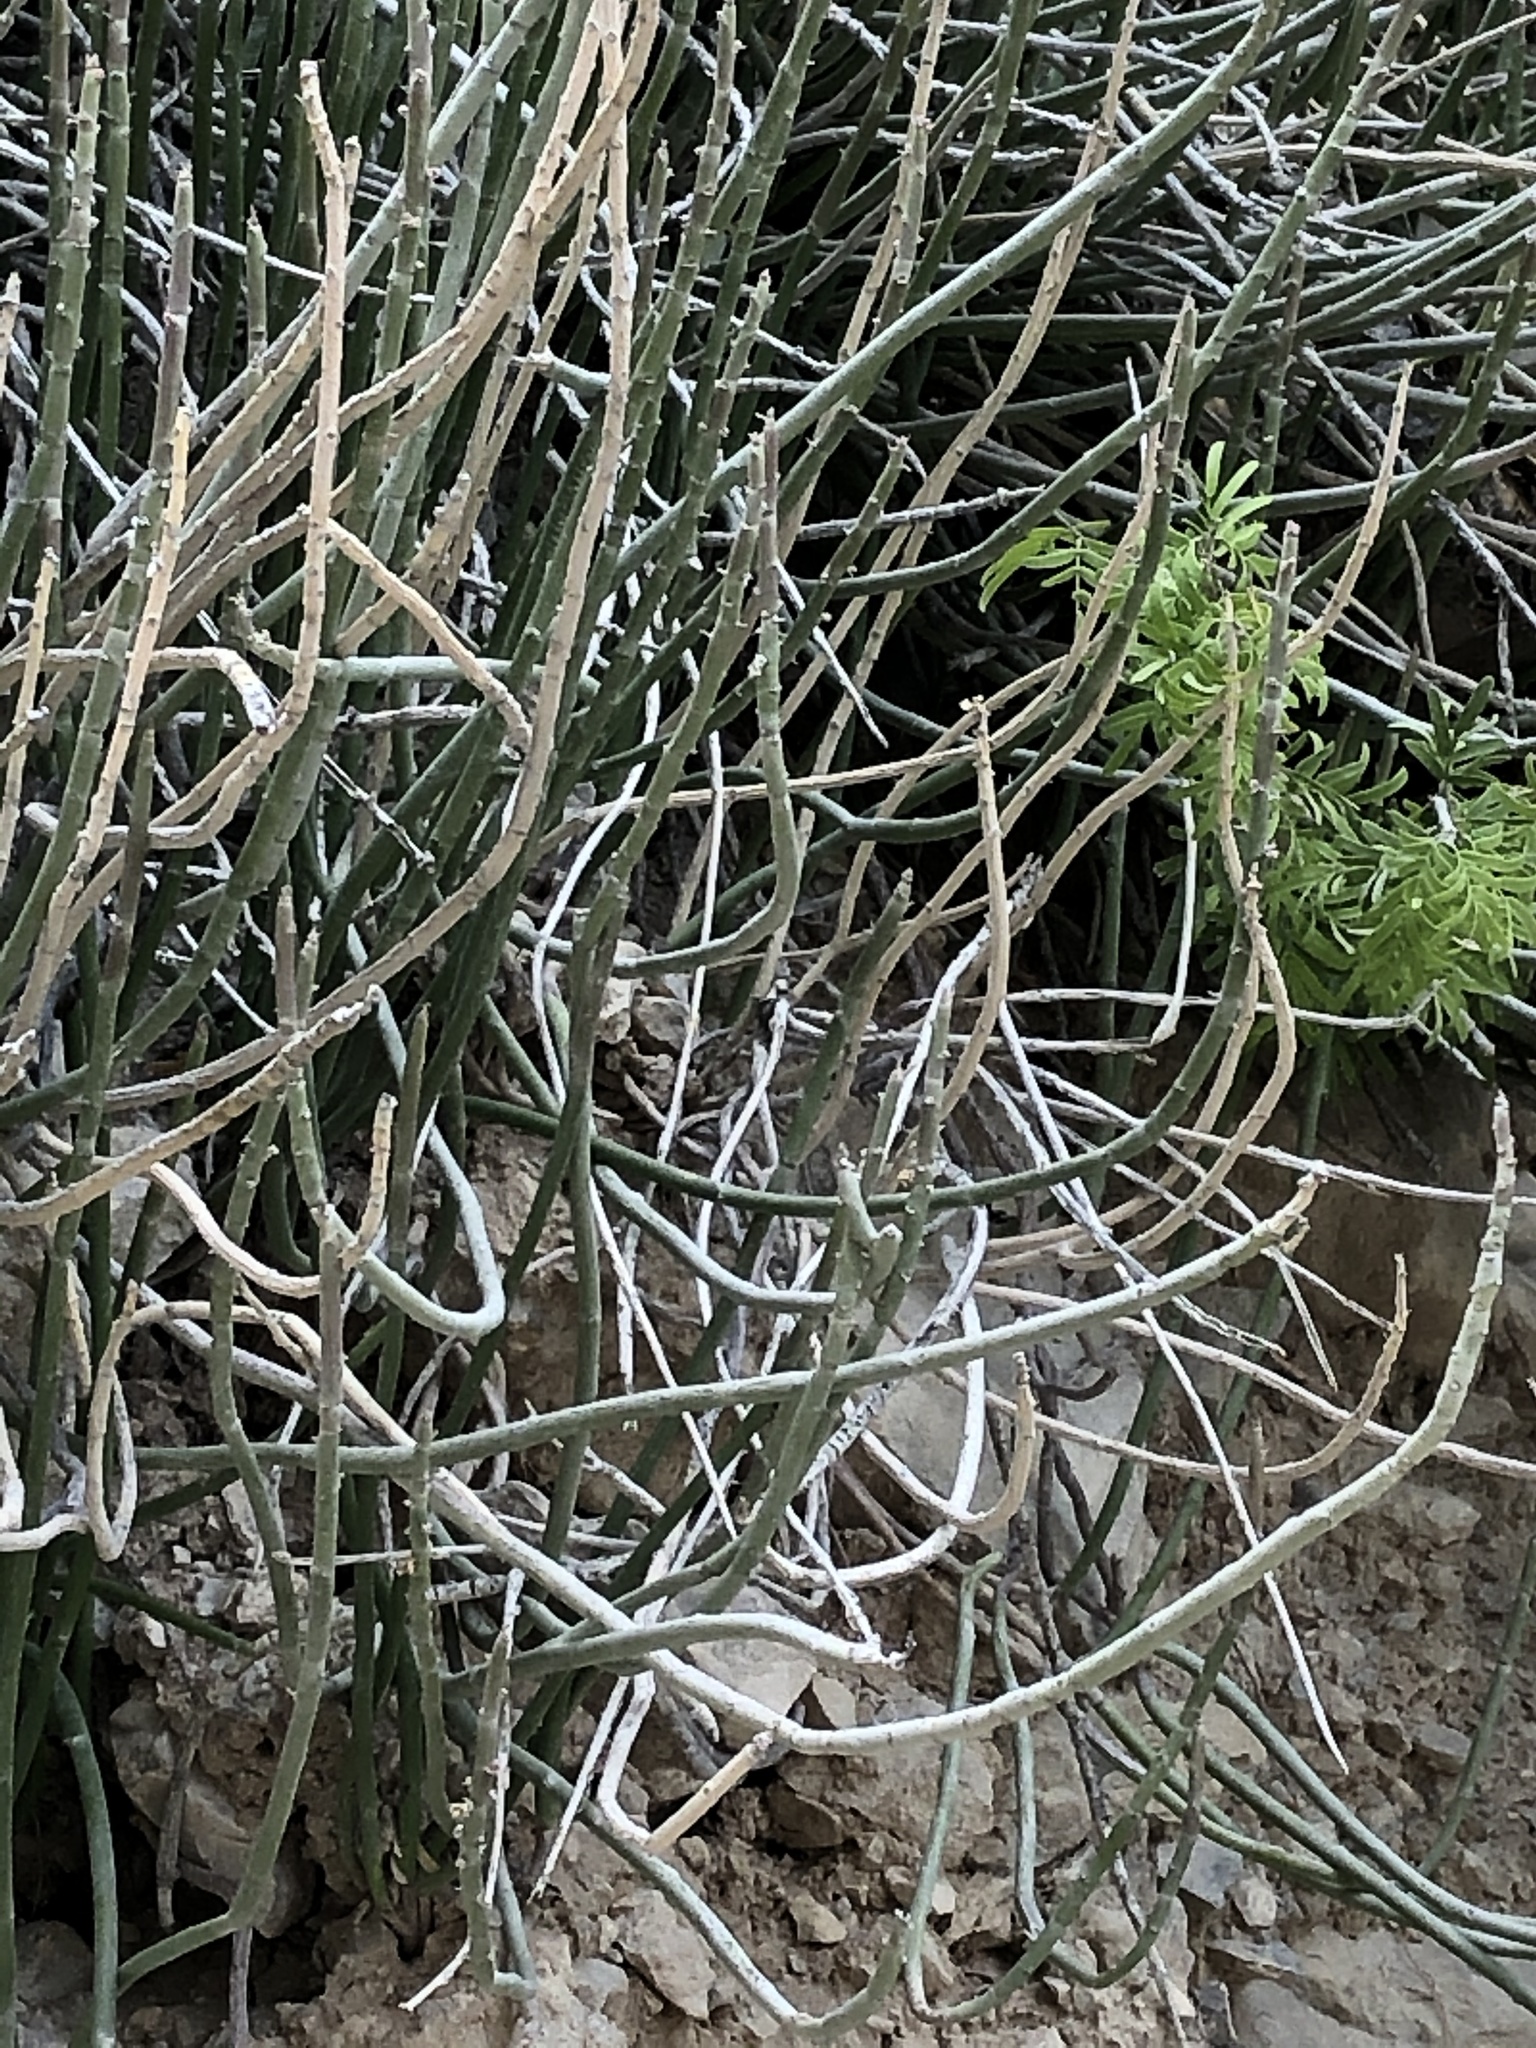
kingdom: Plantae
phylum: Tracheophyta
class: Magnoliopsida
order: Malpighiales
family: Euphorbiaceae
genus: Euphorbia
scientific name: Euphorbia antisyphilitica
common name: Candelilla
